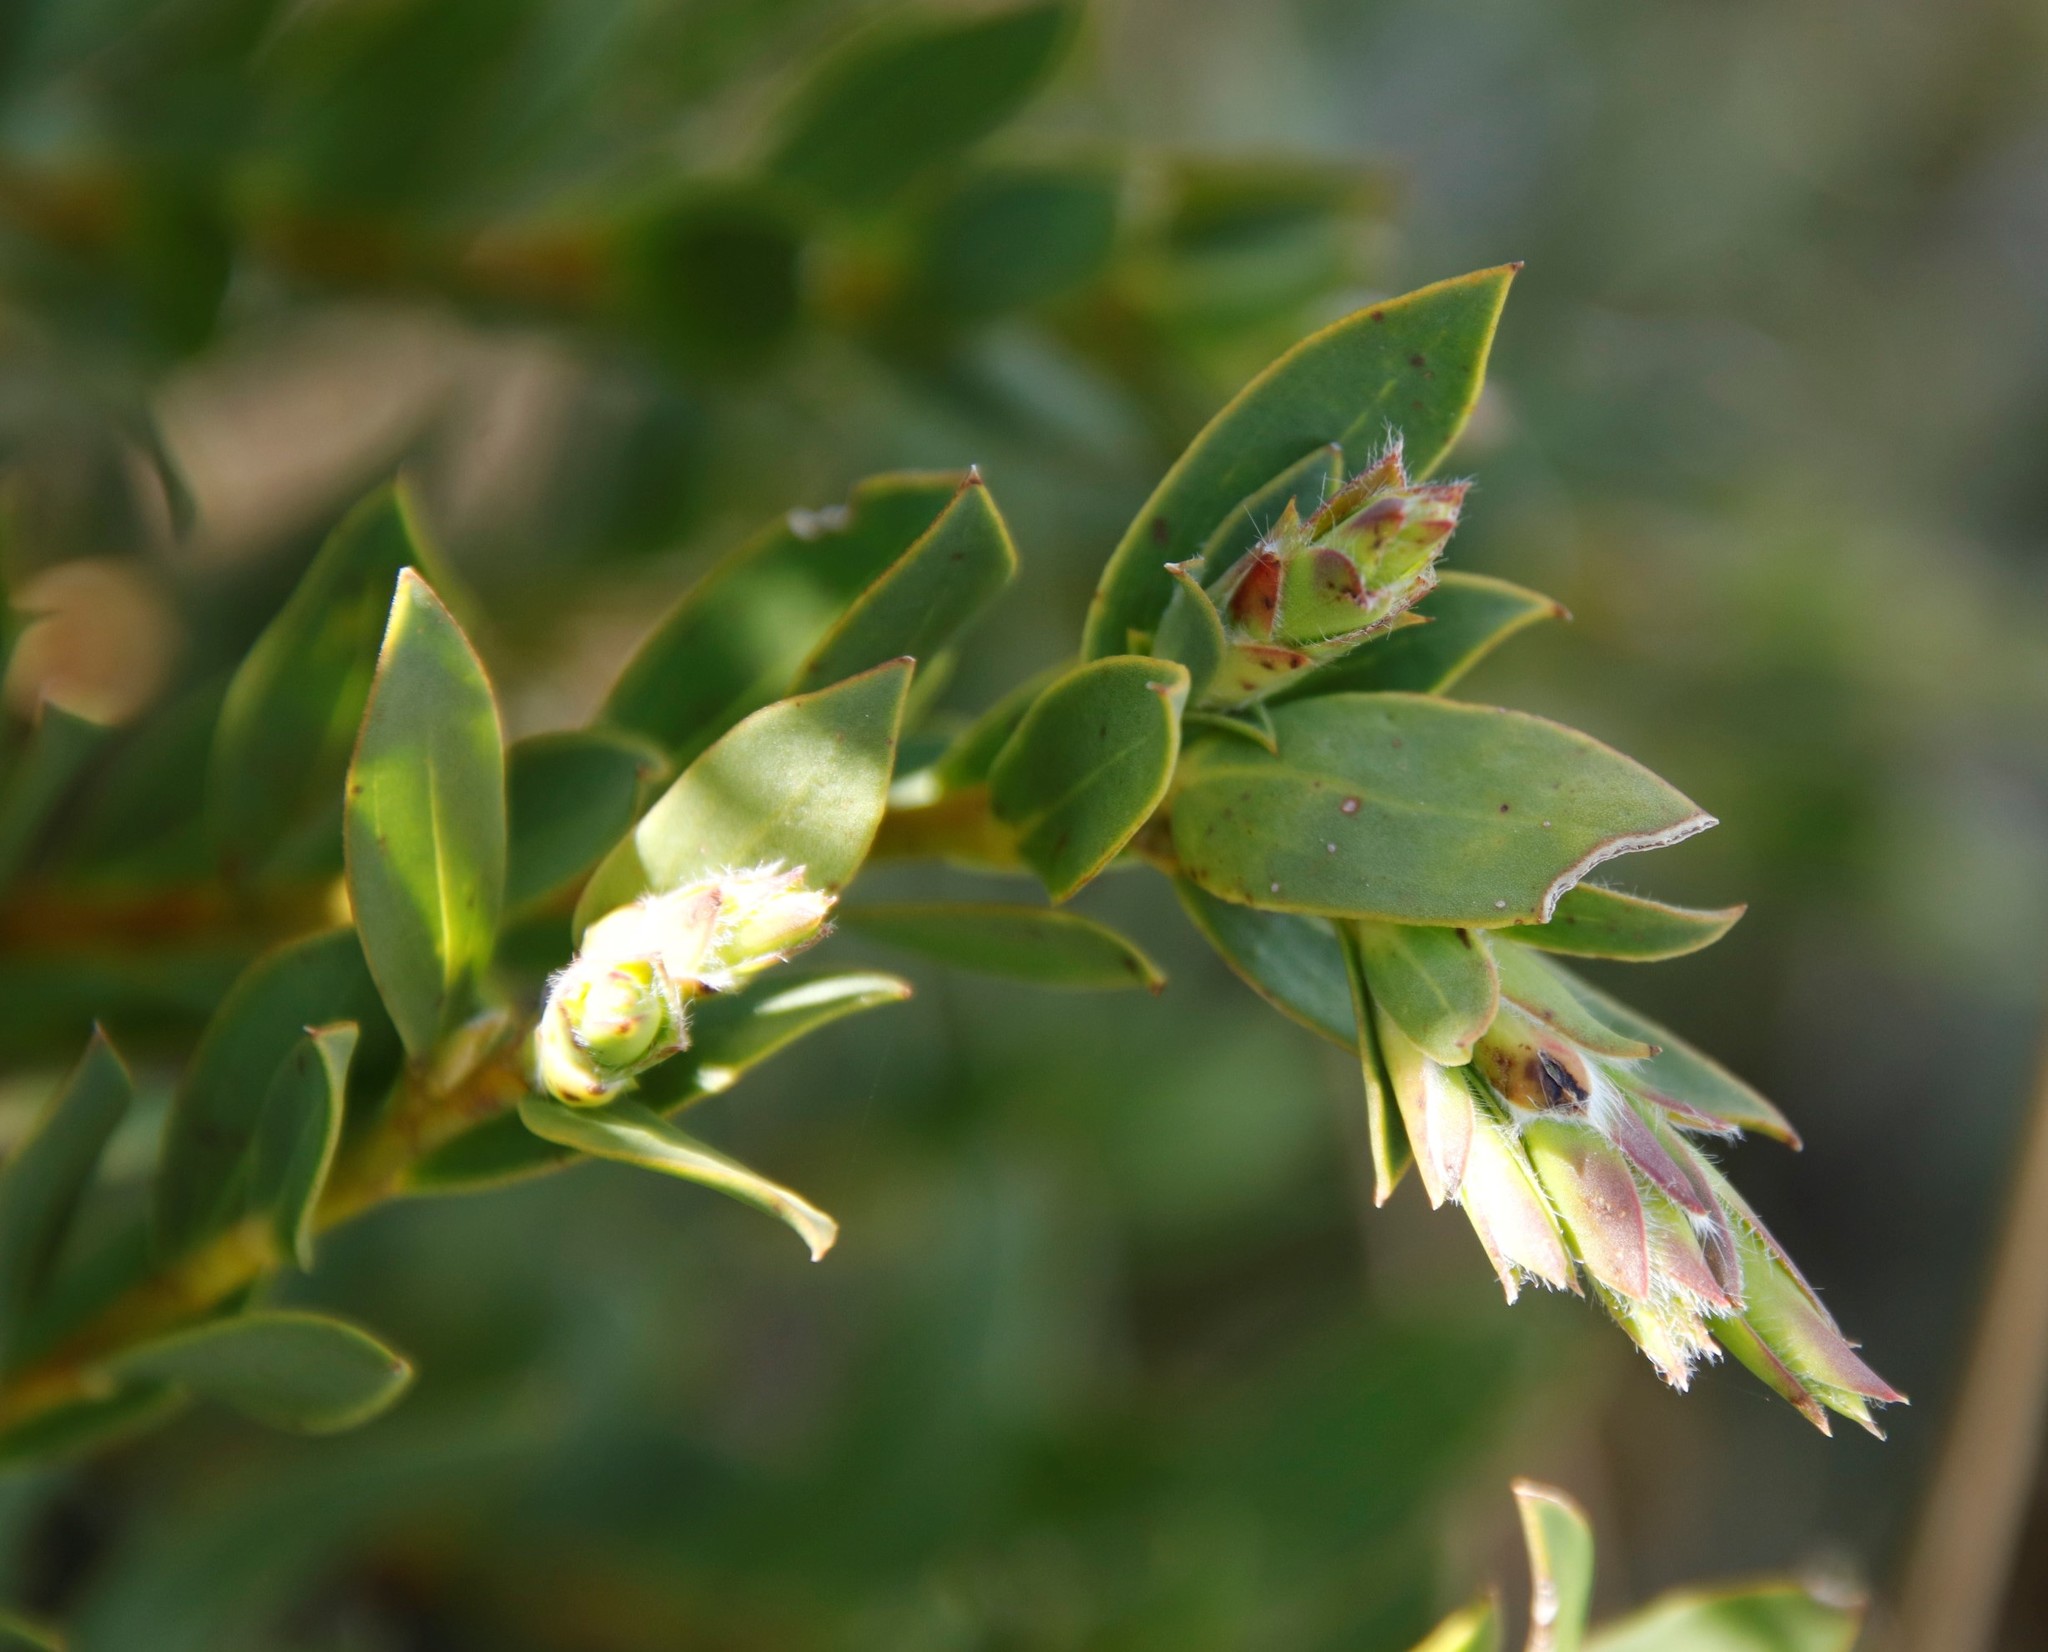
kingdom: Plantae
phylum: Tracheophyta
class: Magnoliopsida
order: Fabales
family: Fabaceae
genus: Liparia
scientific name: Liparia splendens
